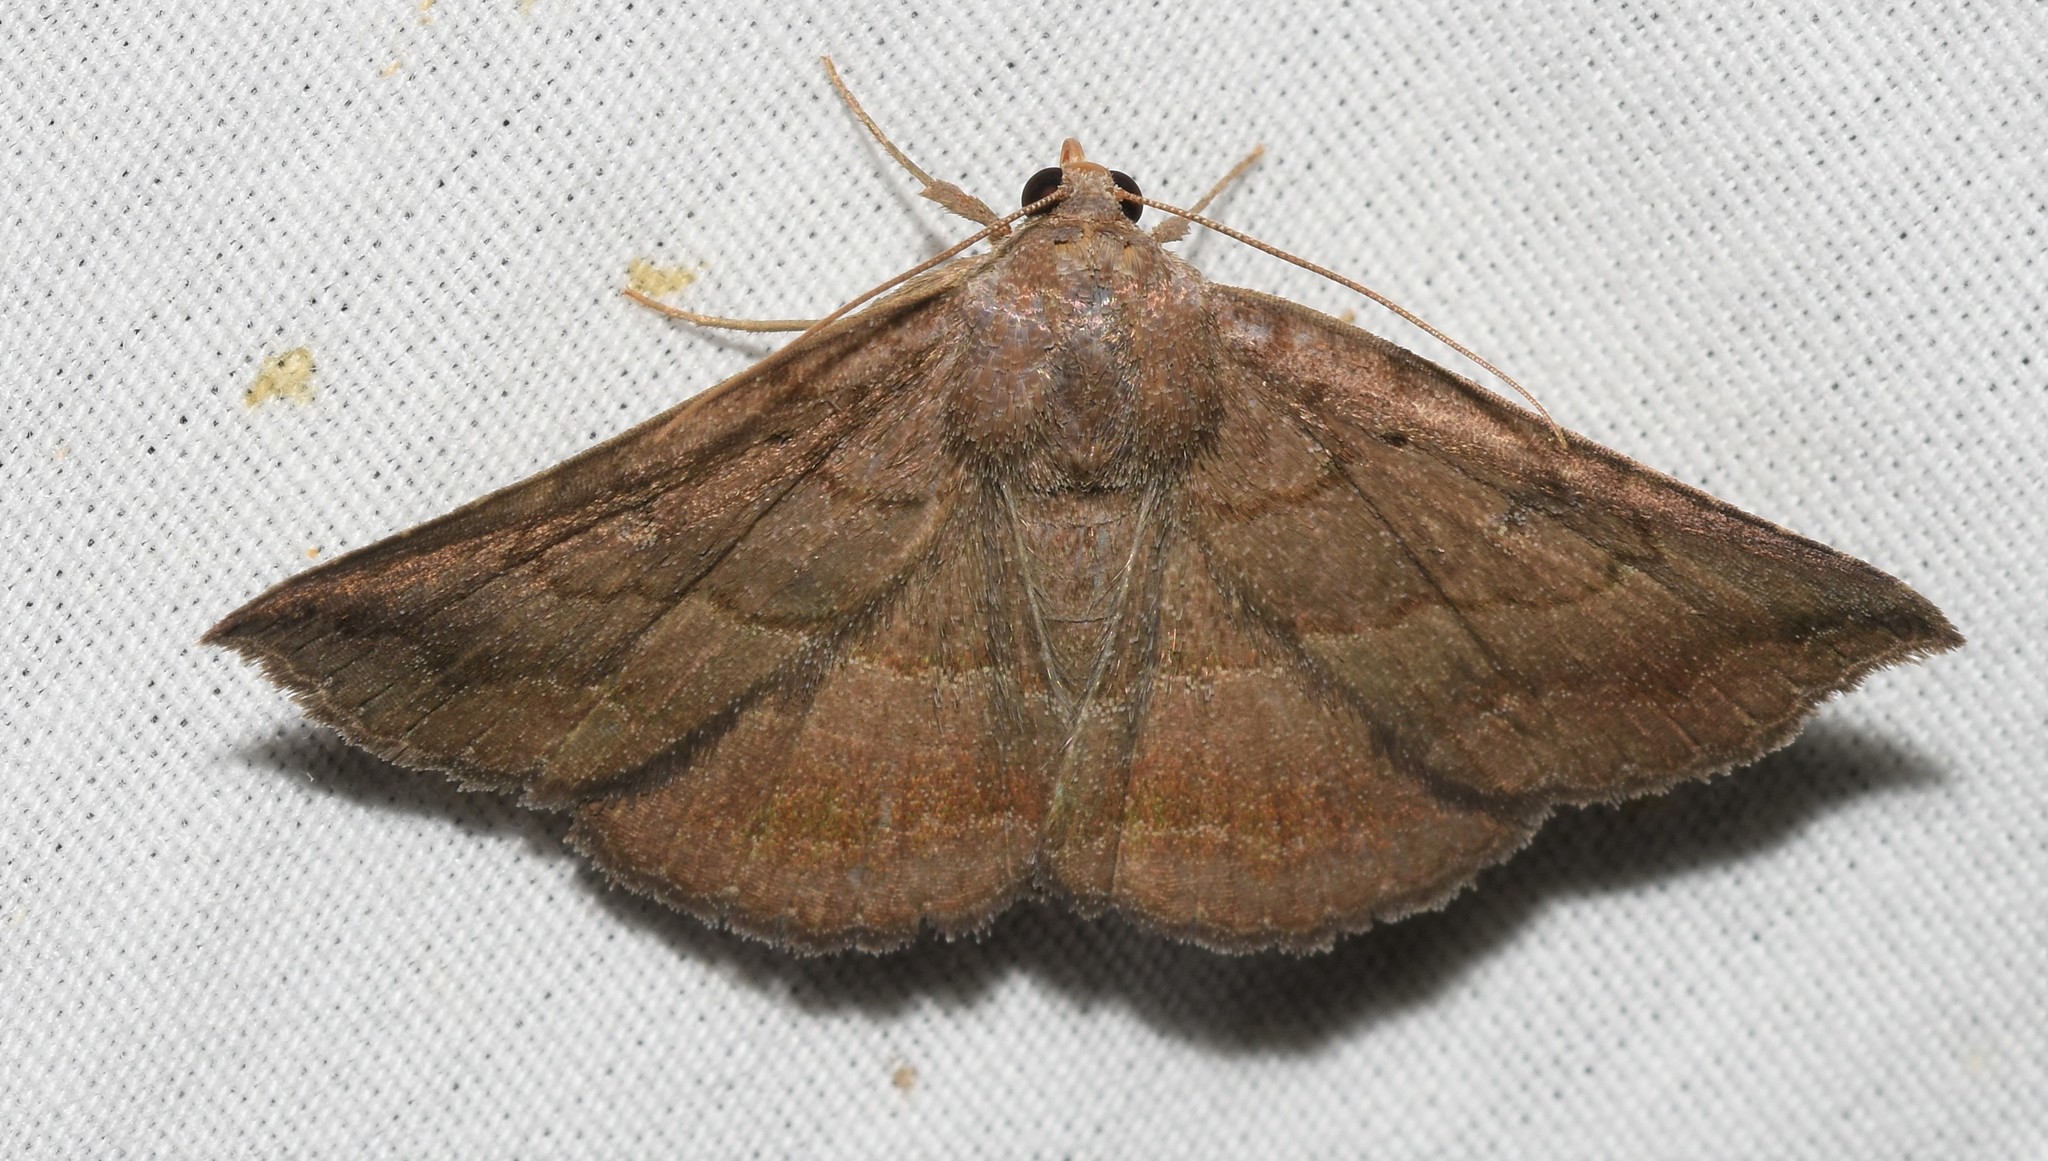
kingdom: Animalia
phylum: Arthropoda
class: Insecta
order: Lepidoptera
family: Erebidae
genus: Lesmone
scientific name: Lesmone detrahens
